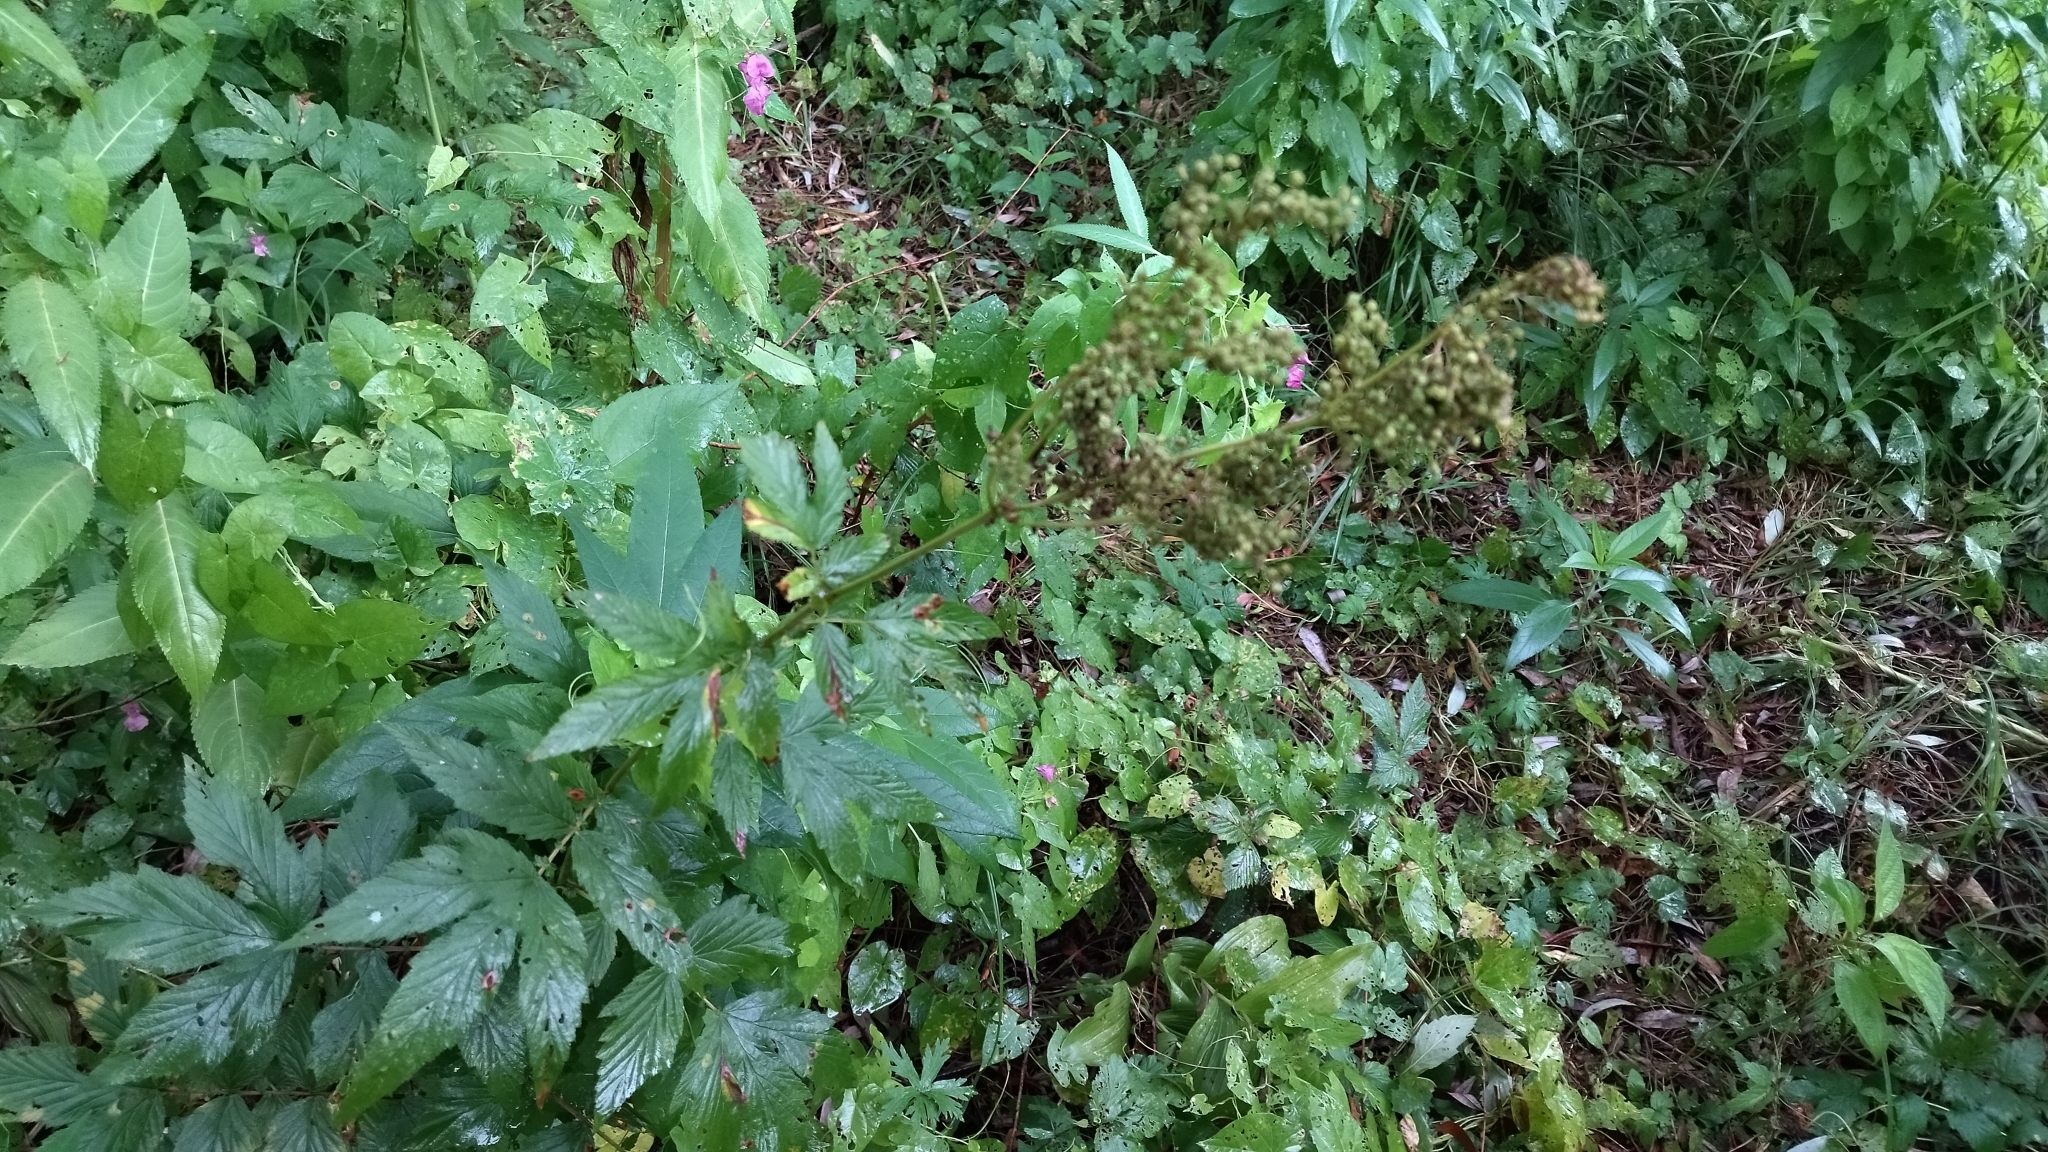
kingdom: Plantae
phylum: Tracheophyta
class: Magnoliopsida
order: Rosales
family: Rosaceae
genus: Filipendula
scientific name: Filipendula ulmaria
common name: Meadowsweet
